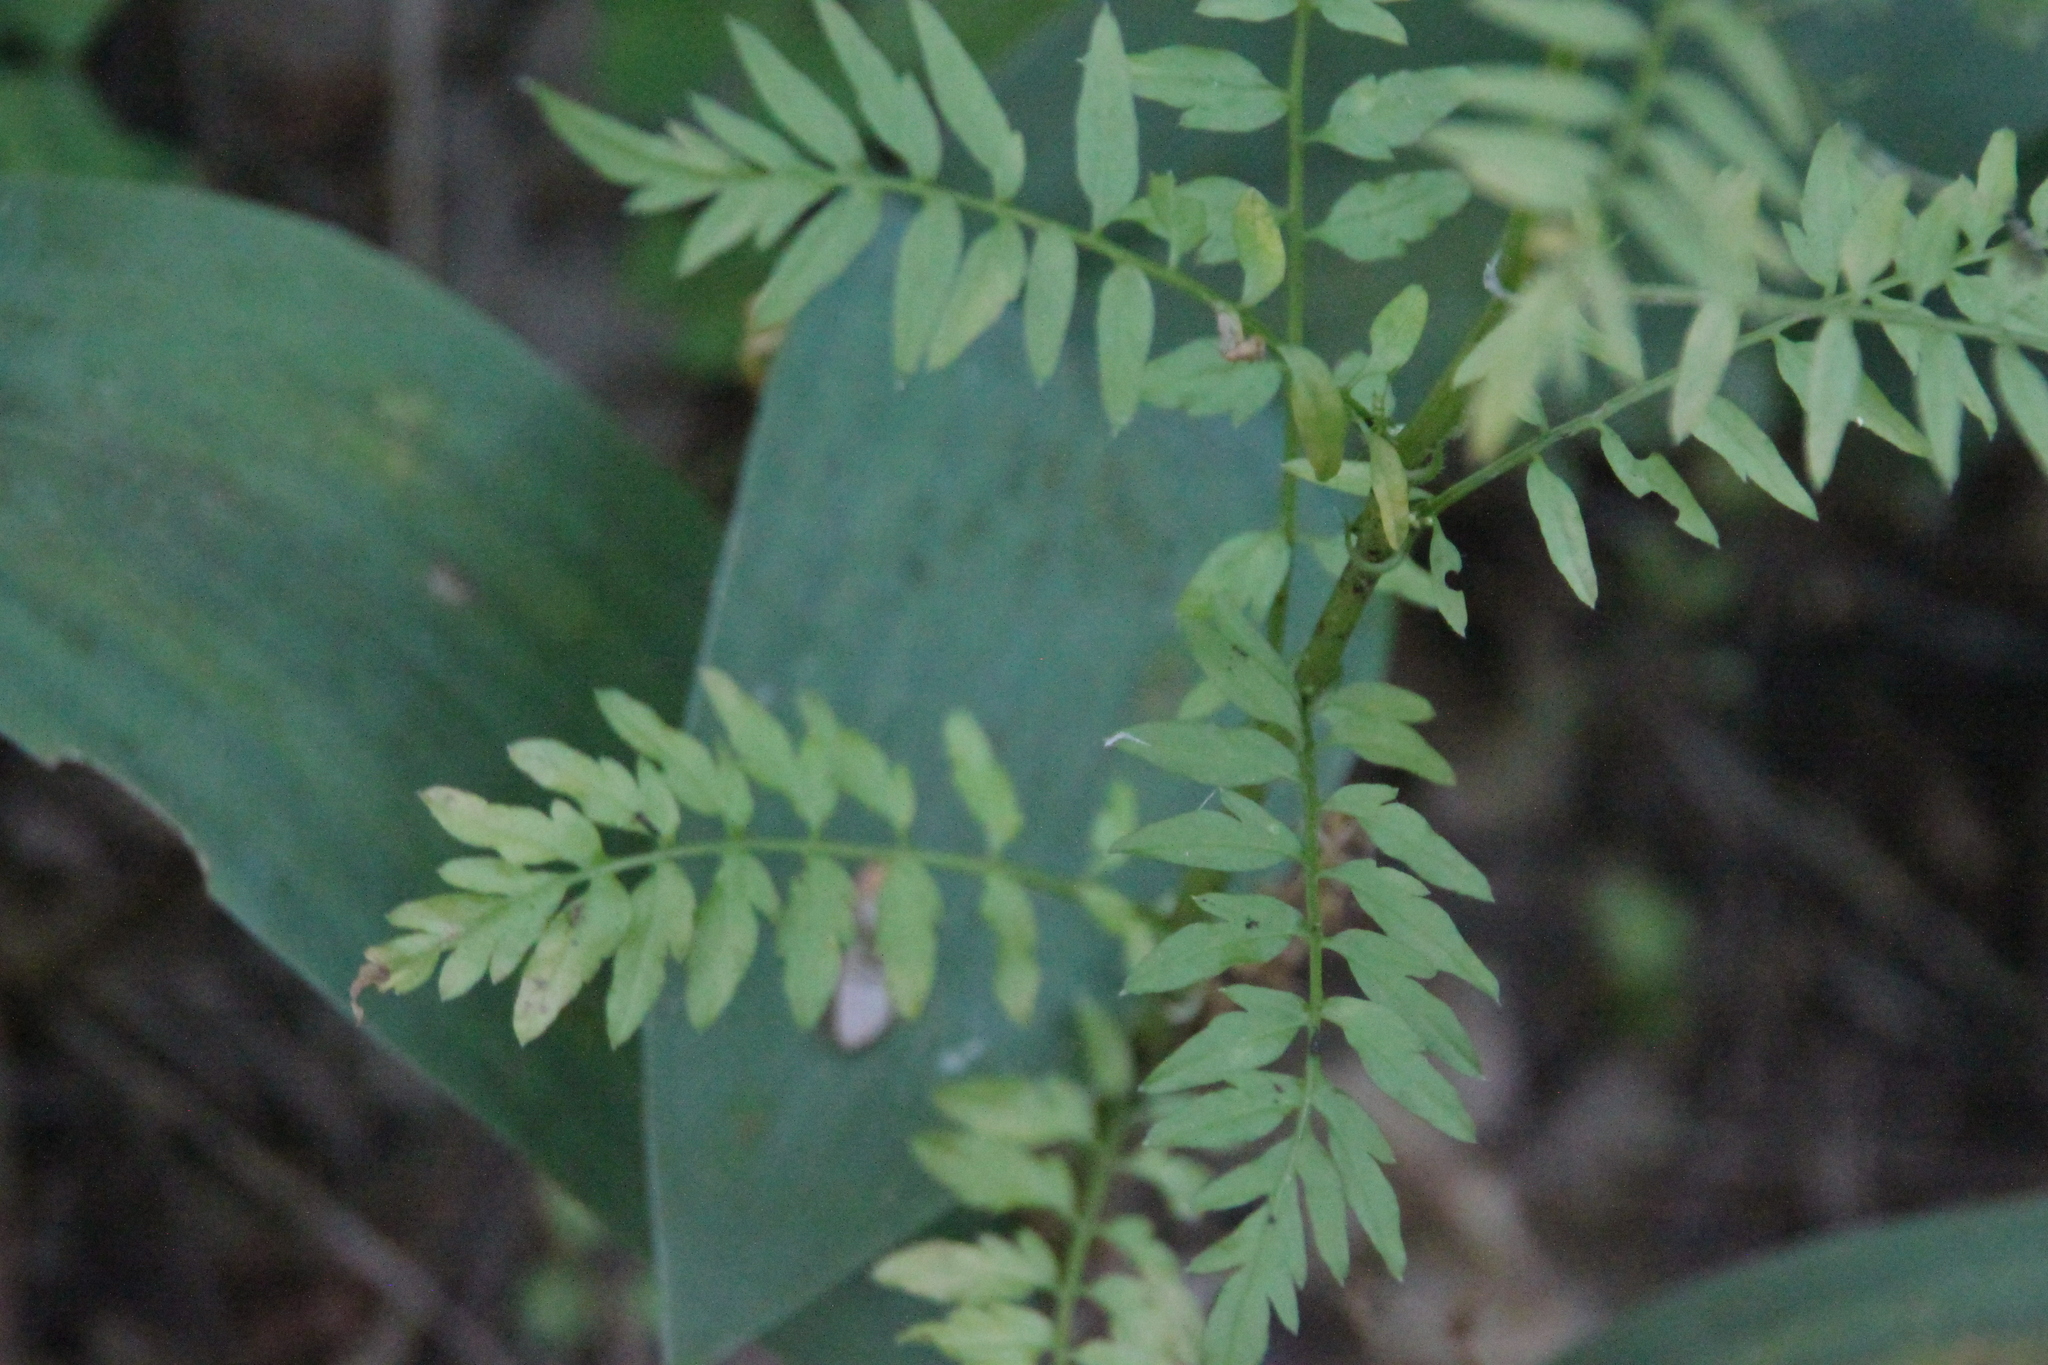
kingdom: Plantae
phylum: Tracheophyta
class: Magnoliopsida
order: Brassicales
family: Brassicaceae
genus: Cardamine
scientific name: Cardamine impatiens
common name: Narrow-leaved bitter-cress
